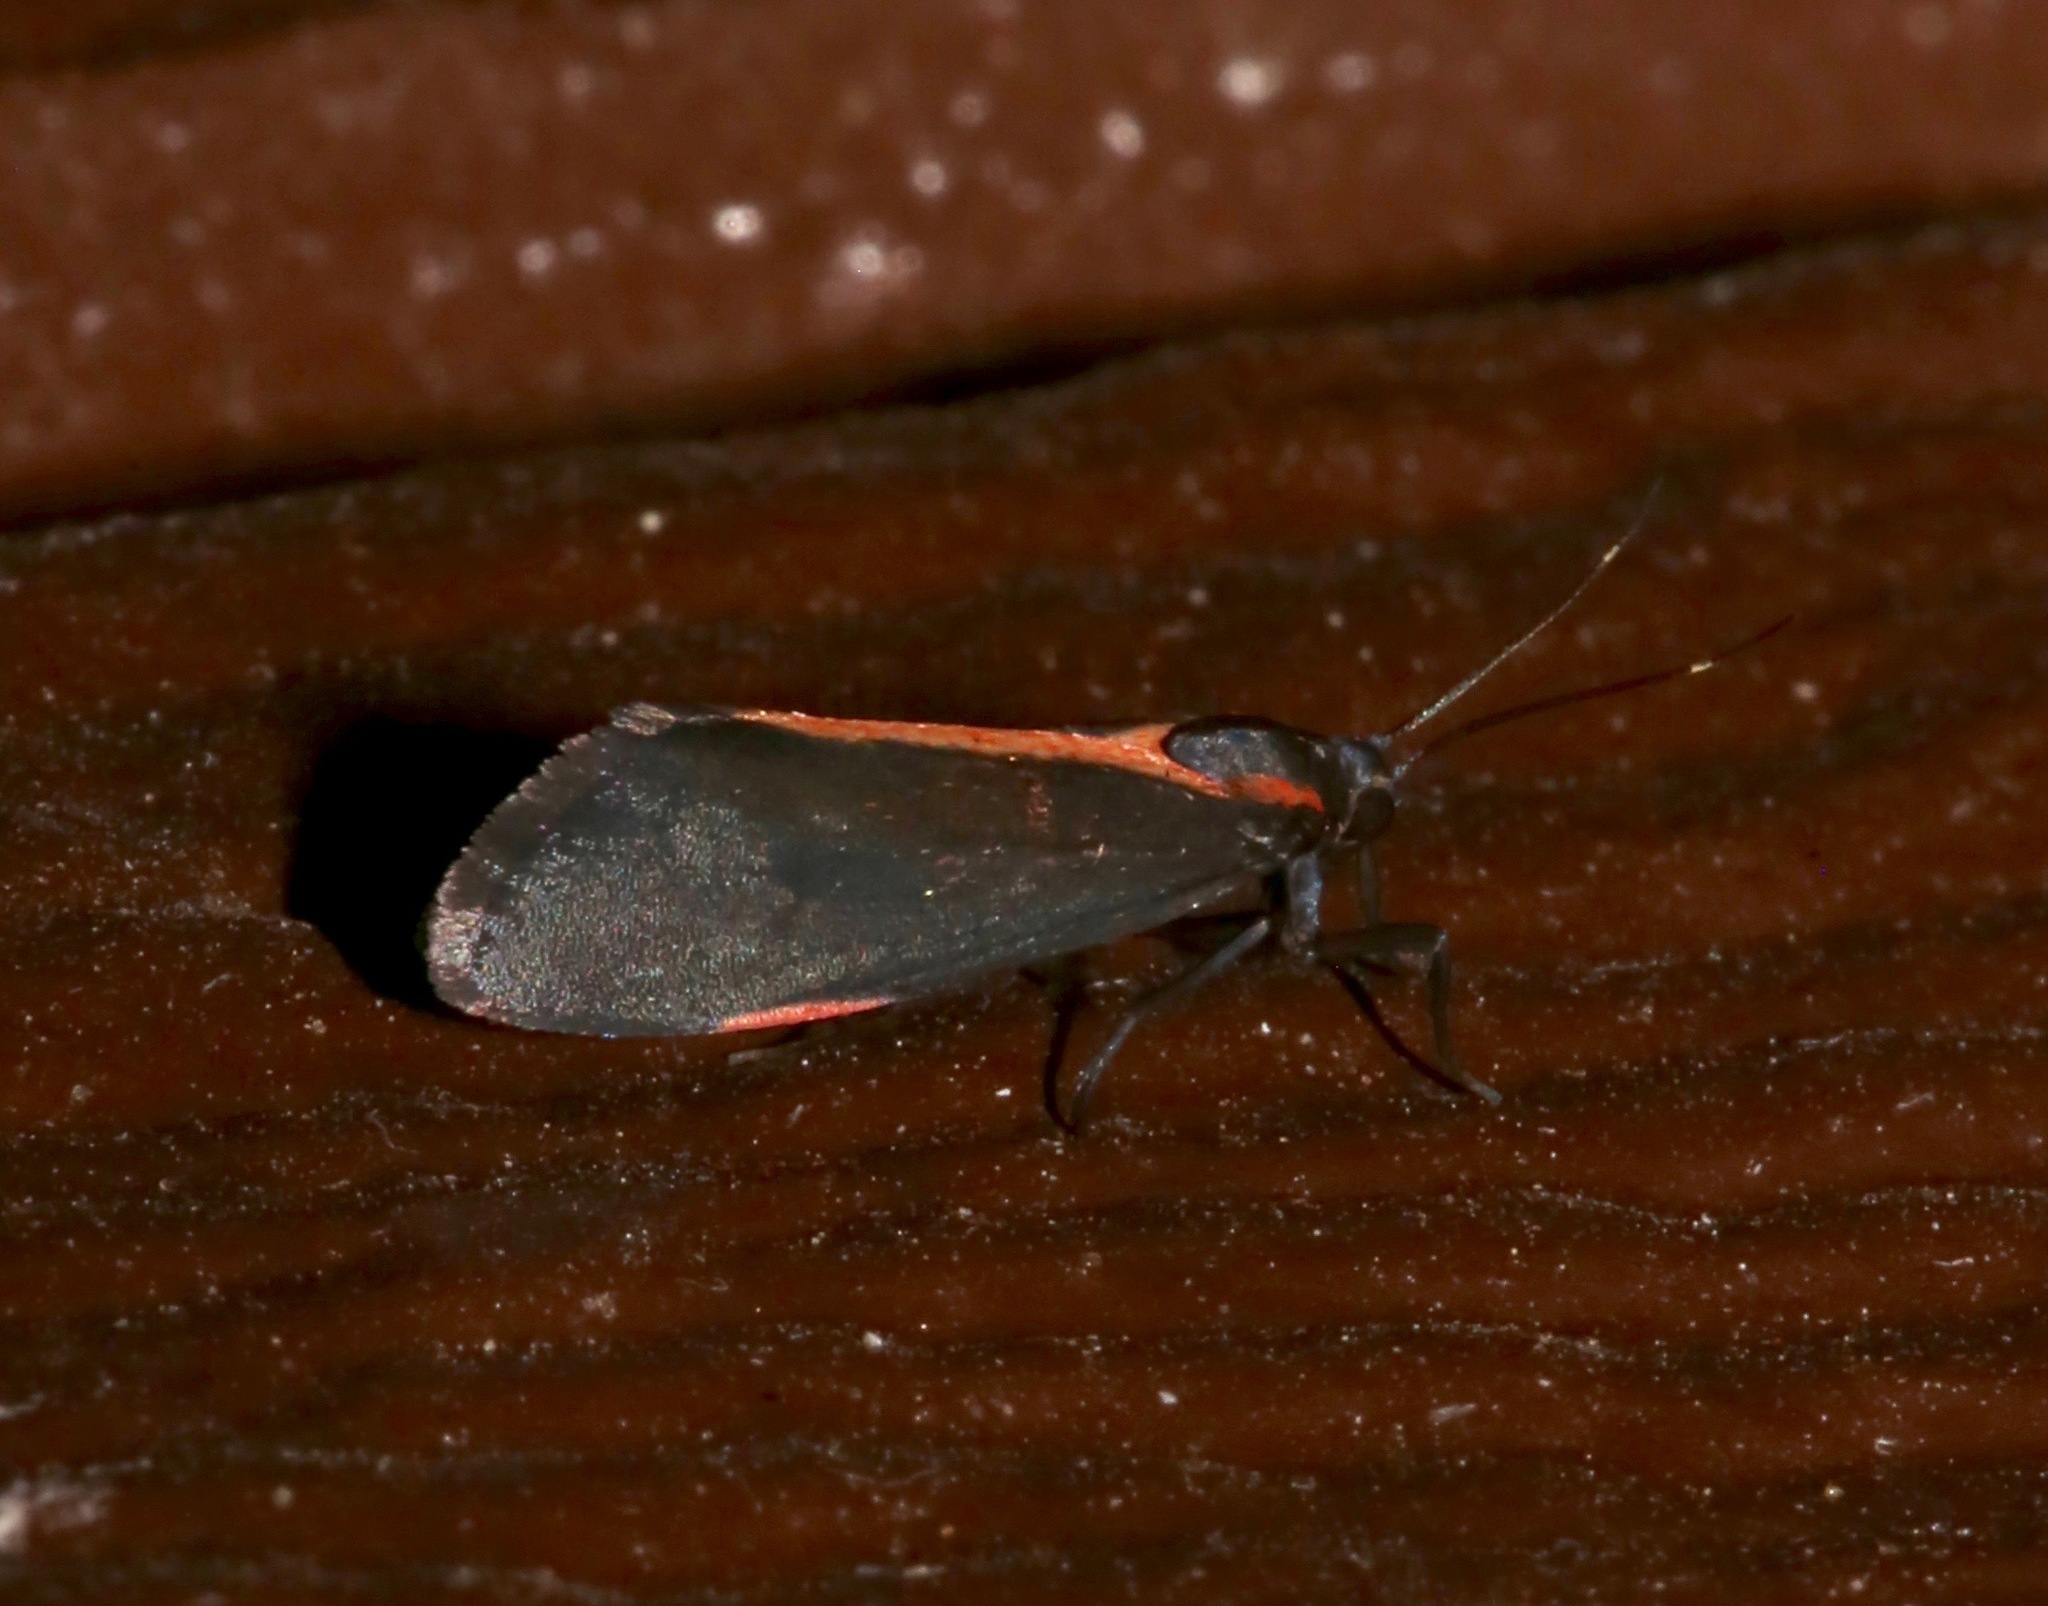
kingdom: Animalia
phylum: Arthropoda
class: Insecta
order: Lepidoptera
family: Erebidae
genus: Cisthene
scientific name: Cisthene juanita
